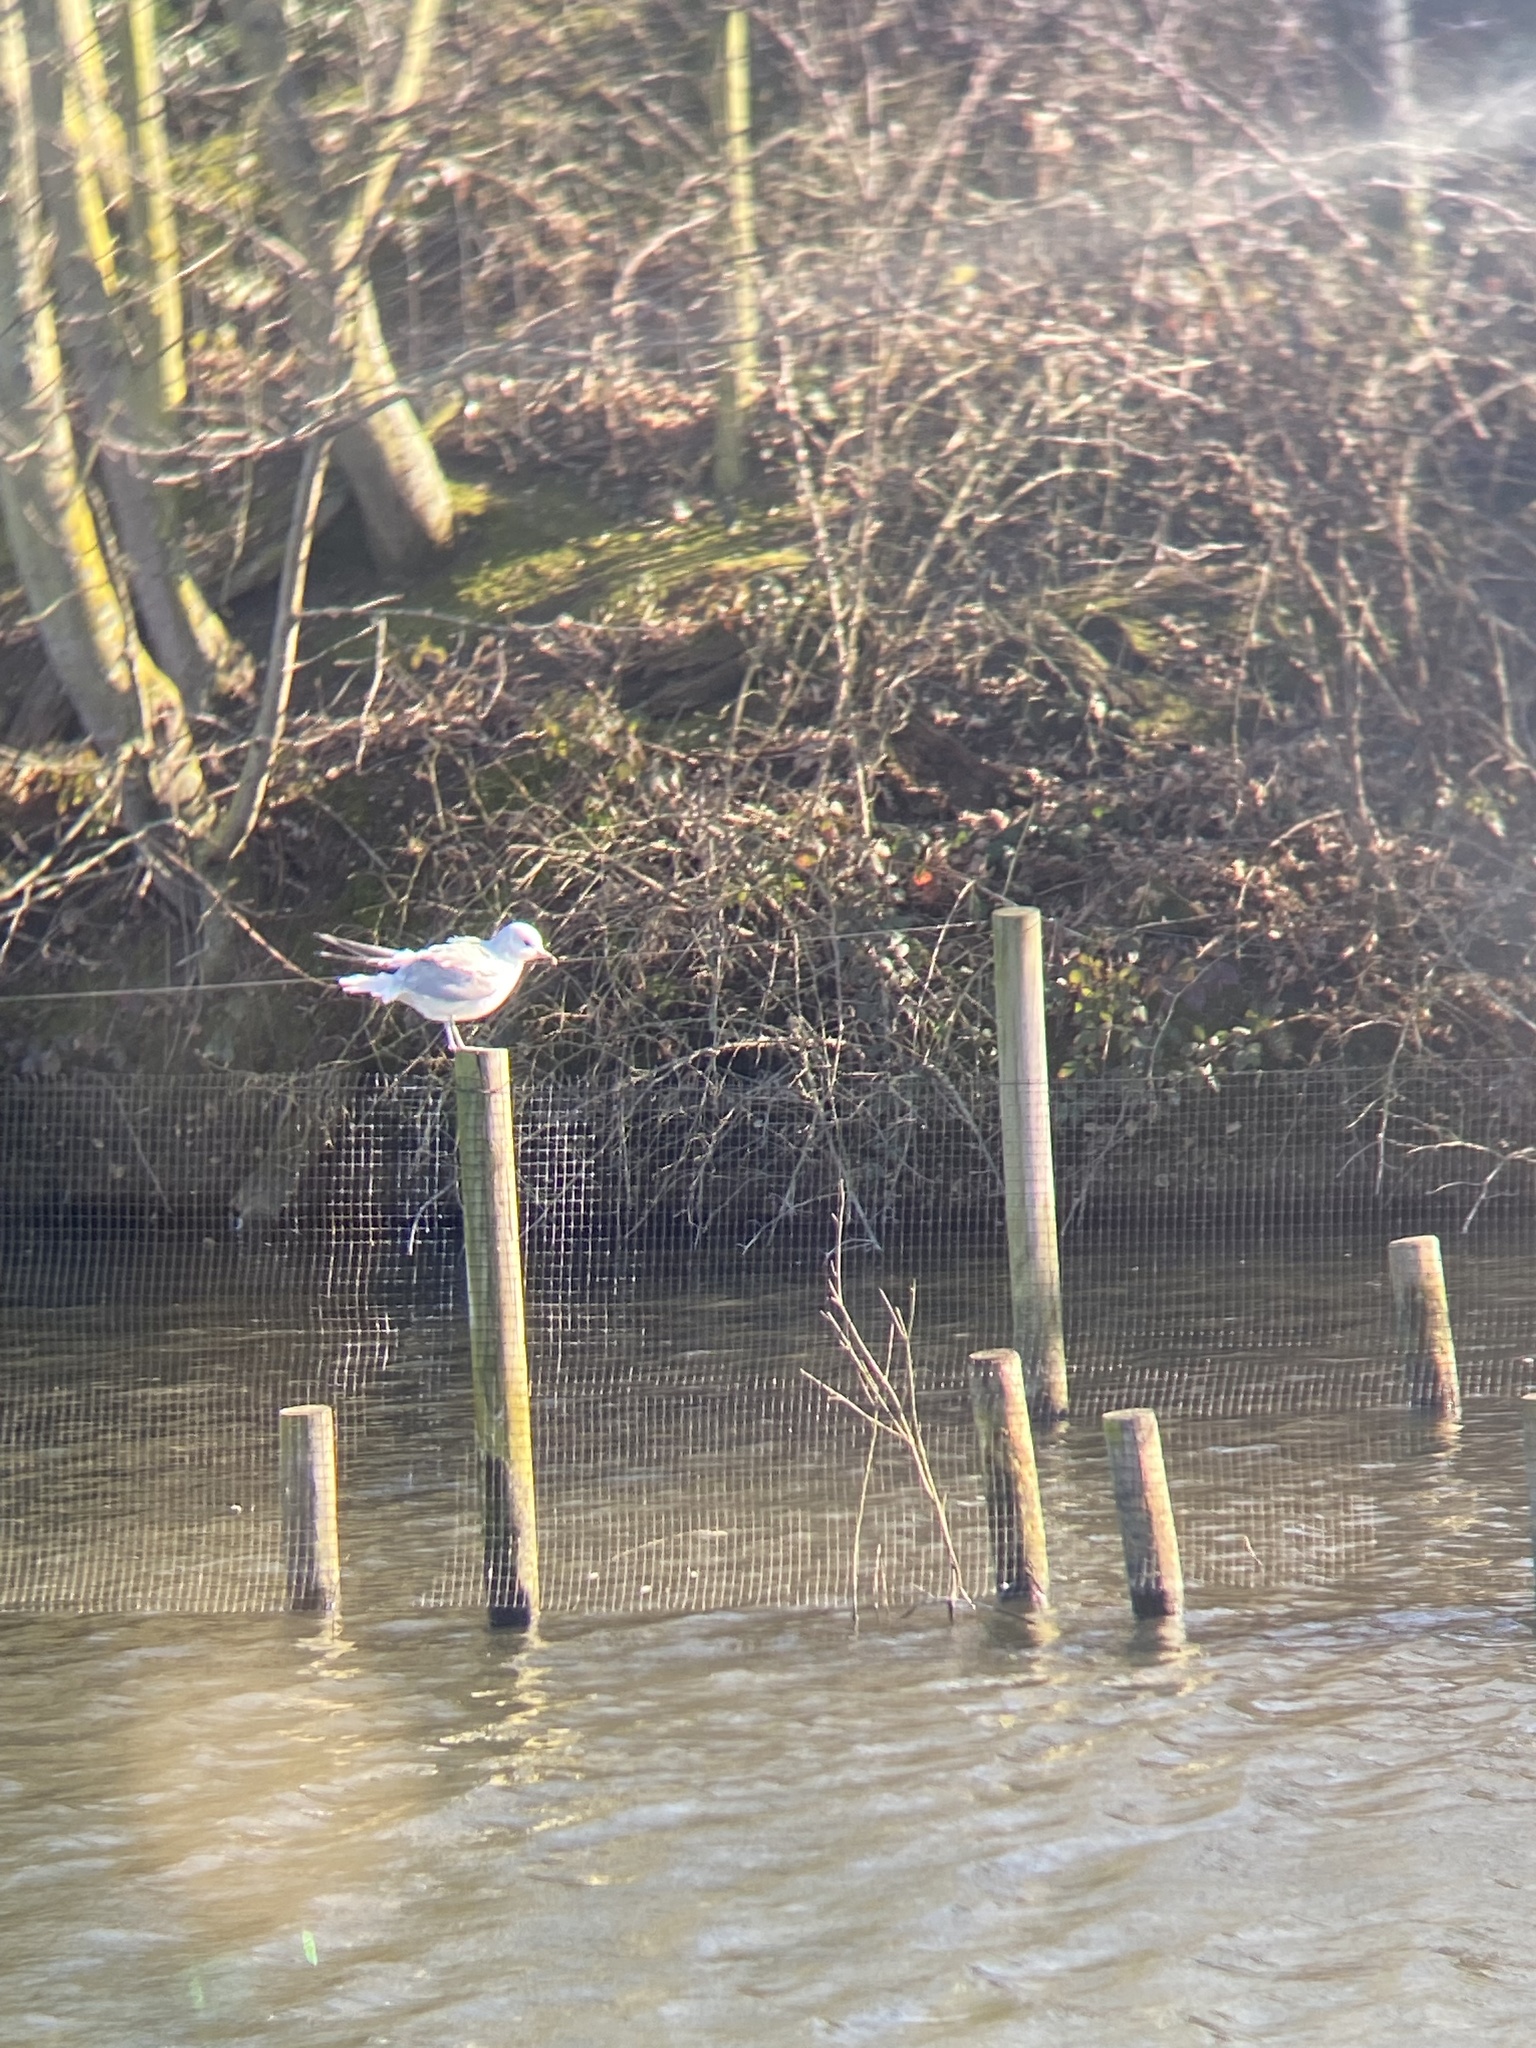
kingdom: Animalia
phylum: Chordata
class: Aves
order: Charadriiformes
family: Laridae
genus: Larus
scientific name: Larus canus
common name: Mew gull
